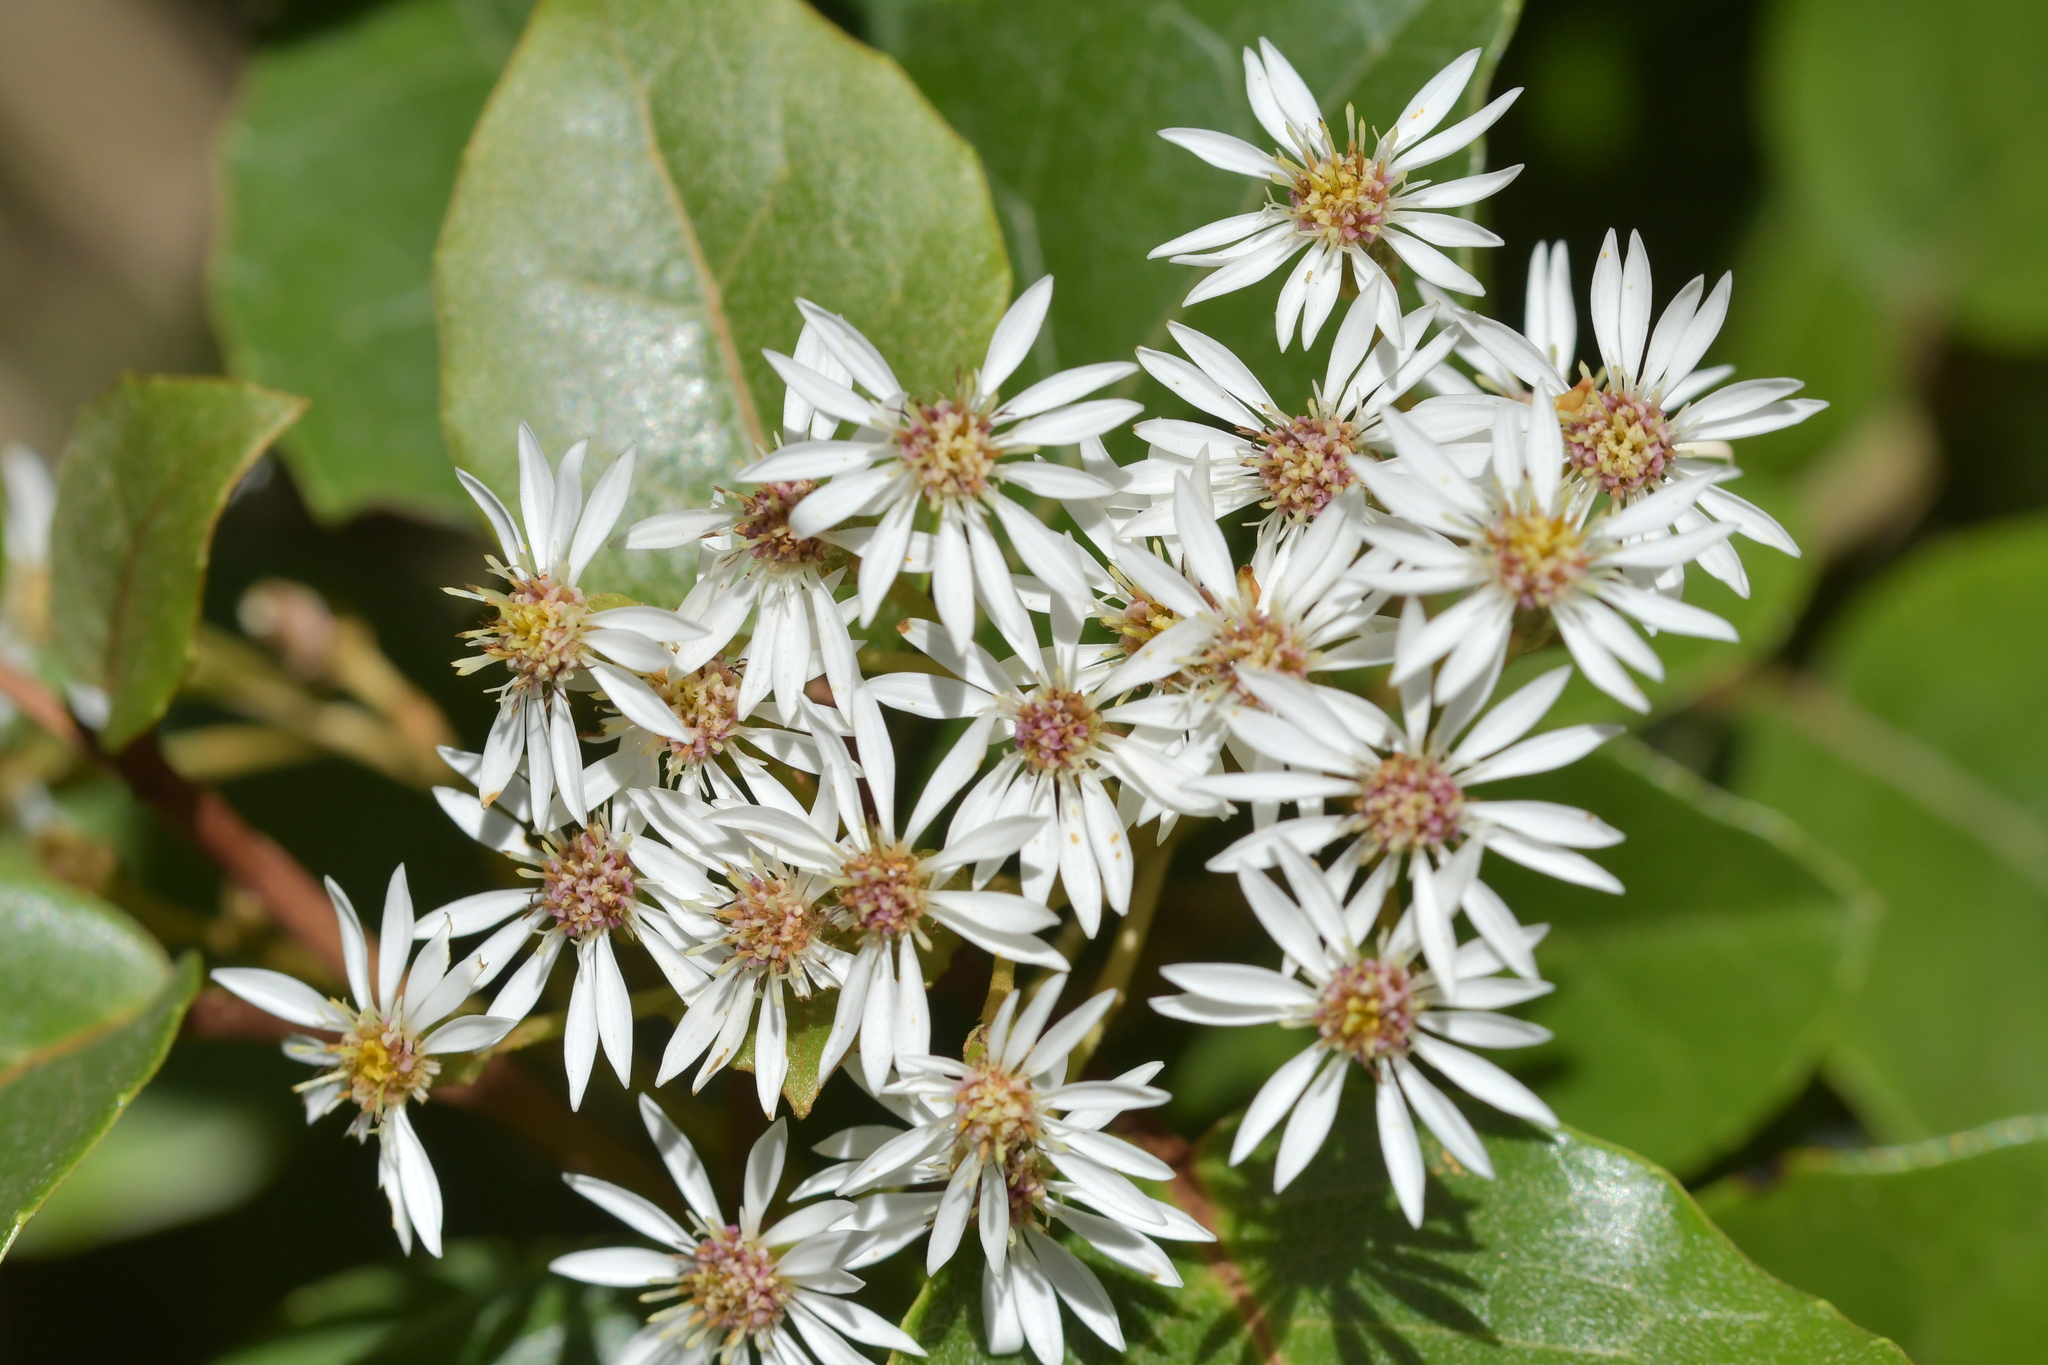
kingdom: Plantae
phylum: Tracheophyta
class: Magnoliopsida
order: Asterales
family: Asteraceae
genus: Olearia
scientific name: Olearia arborescens
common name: Glossy tree daisy
